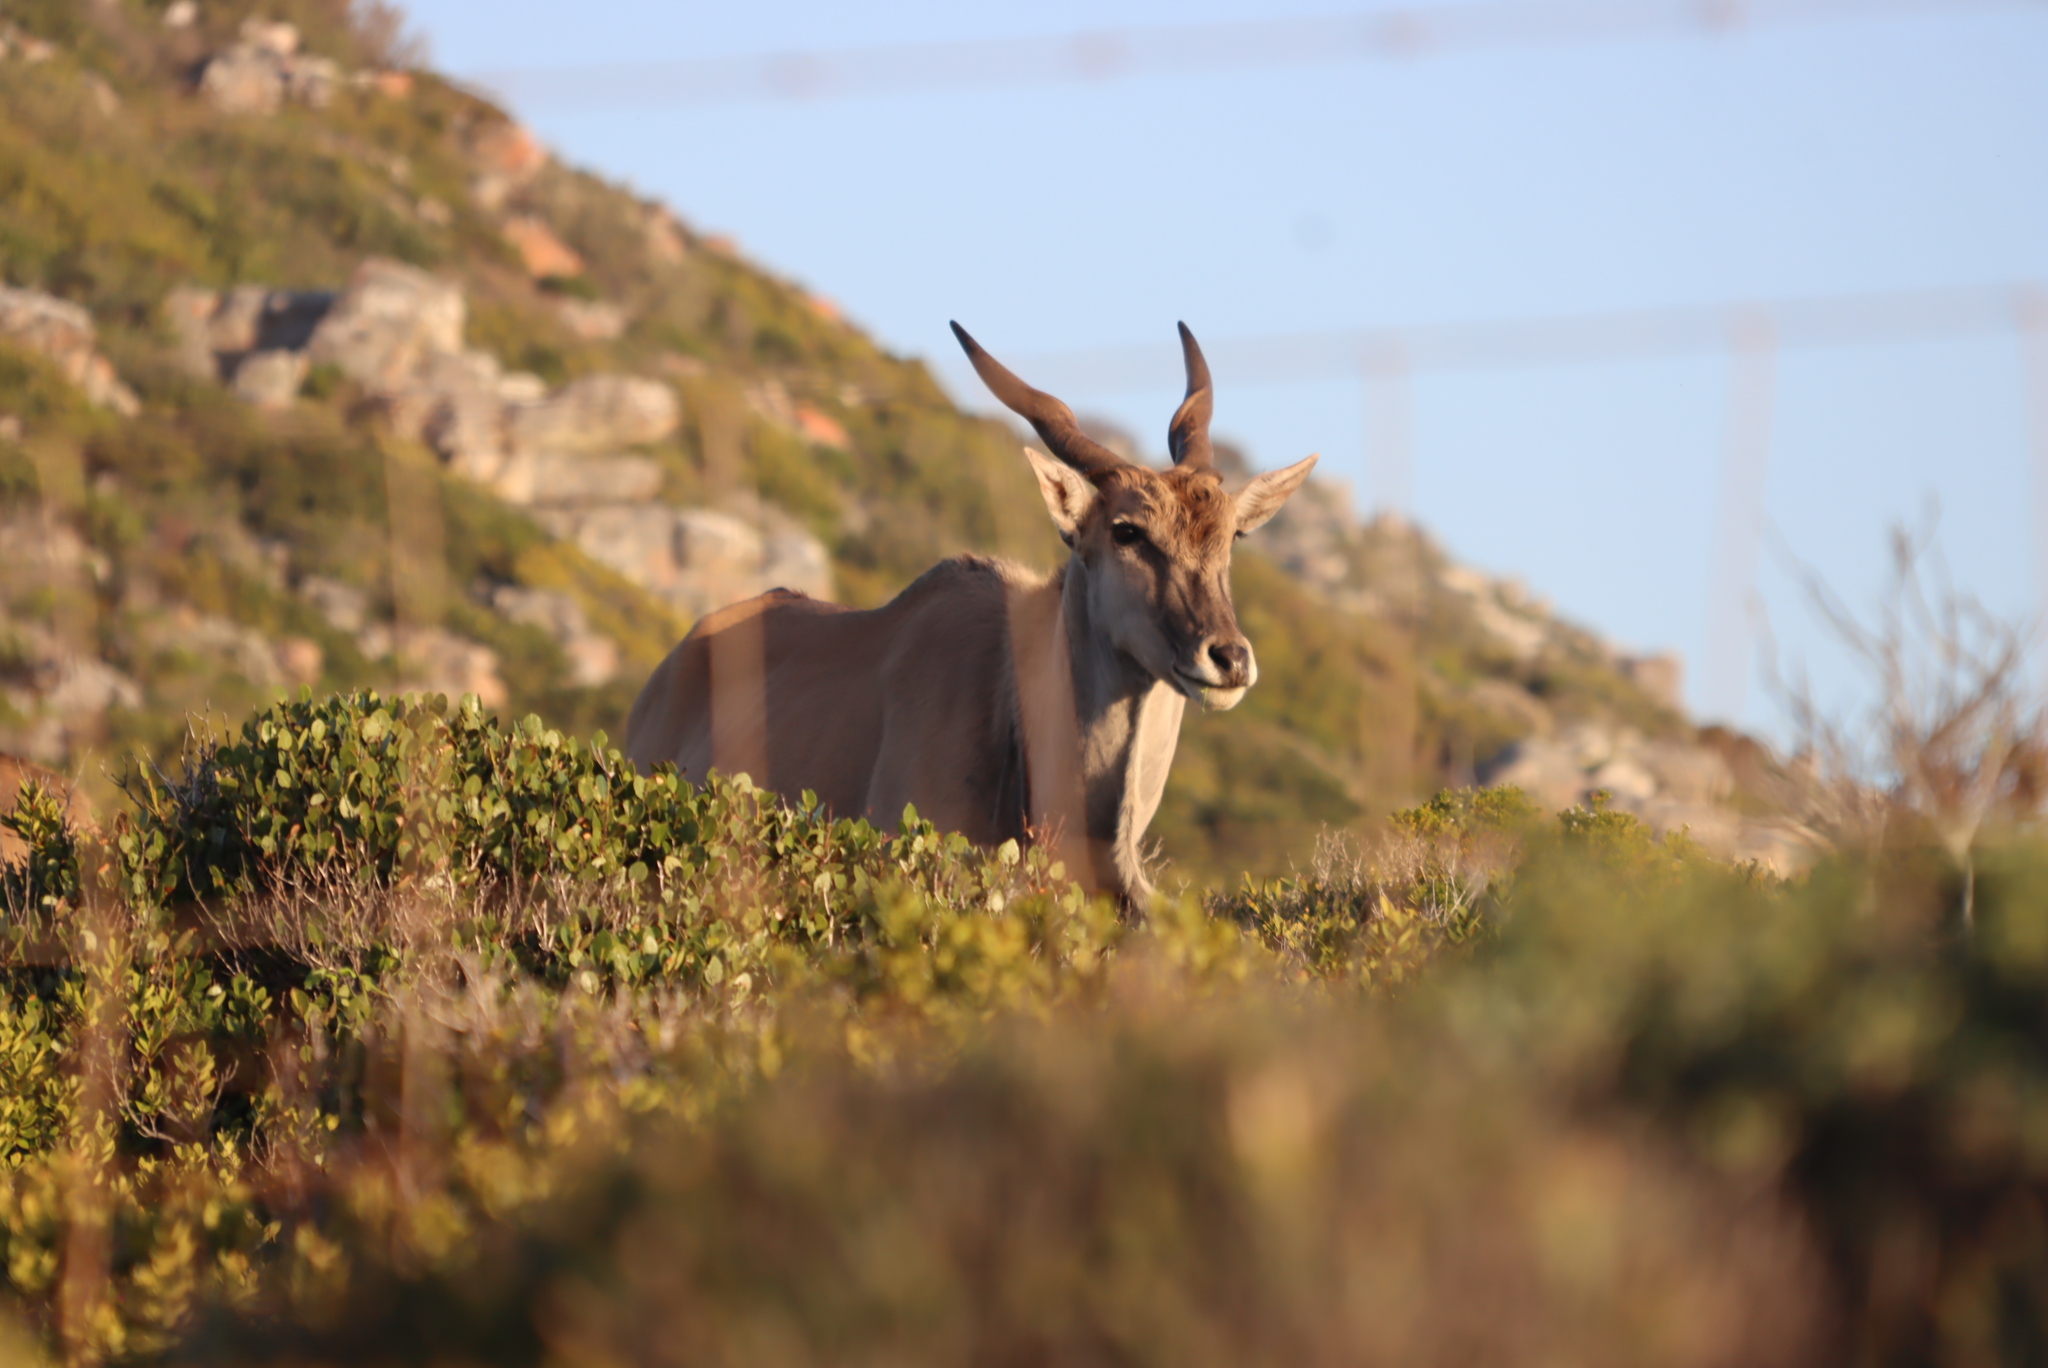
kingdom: Animalia
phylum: Chordata
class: Mammalia
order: Artiodactyla
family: Bovidae
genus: Taurotragus
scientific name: Taurotragus oryx
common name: Common eland
